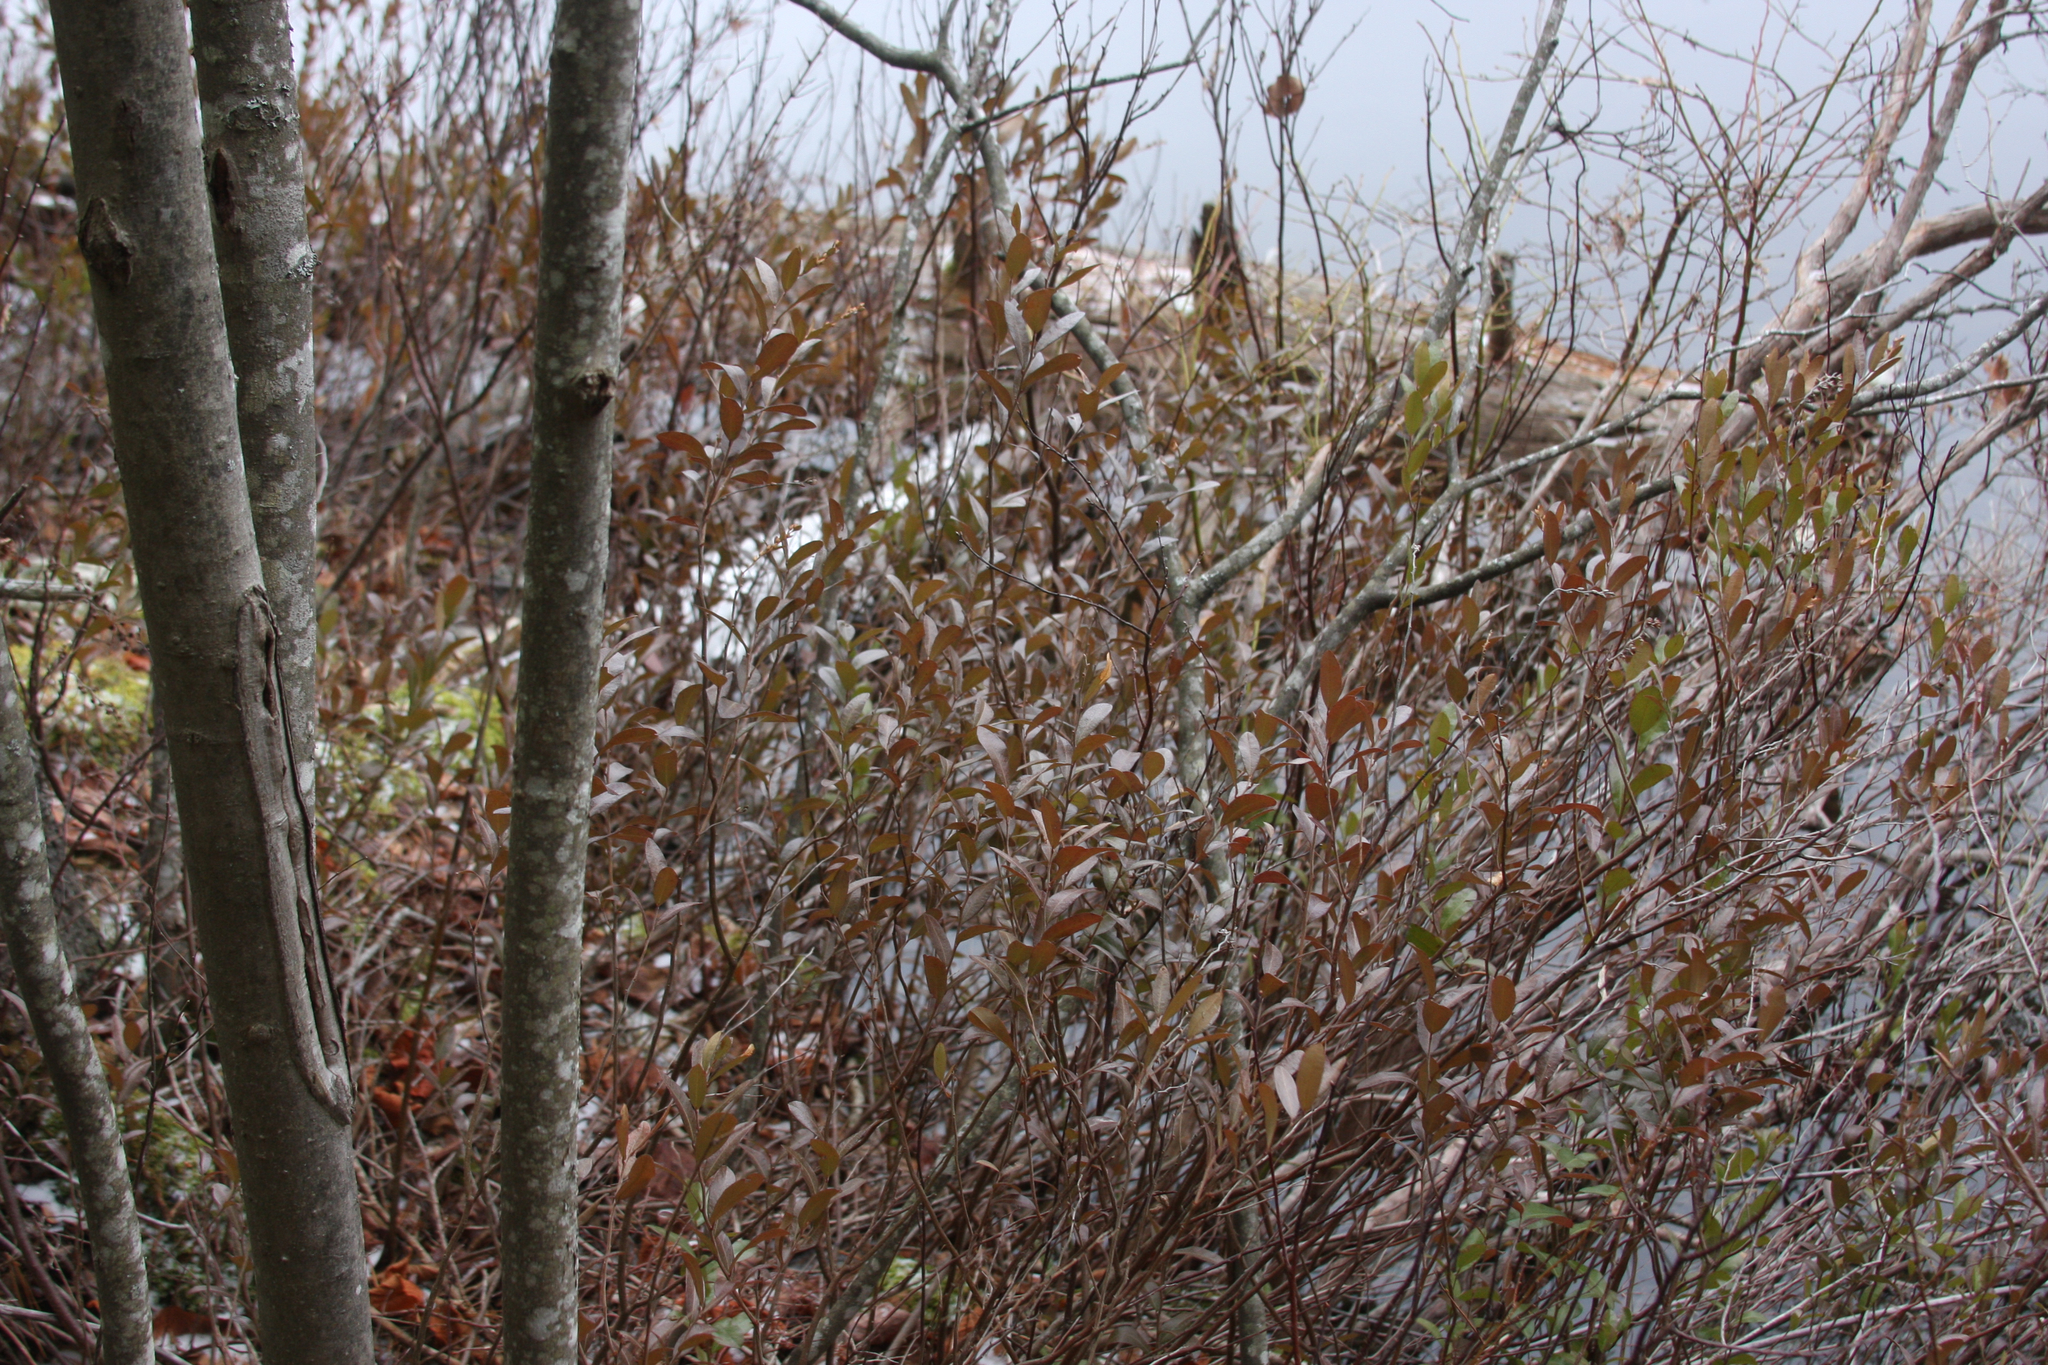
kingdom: Plantae
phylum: Tracheophyta
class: Magnoliopsida
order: Ericales
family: Ericaceae
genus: Chamaedaphne
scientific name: Chamaedaphne calyculata
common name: Leatherleaf
